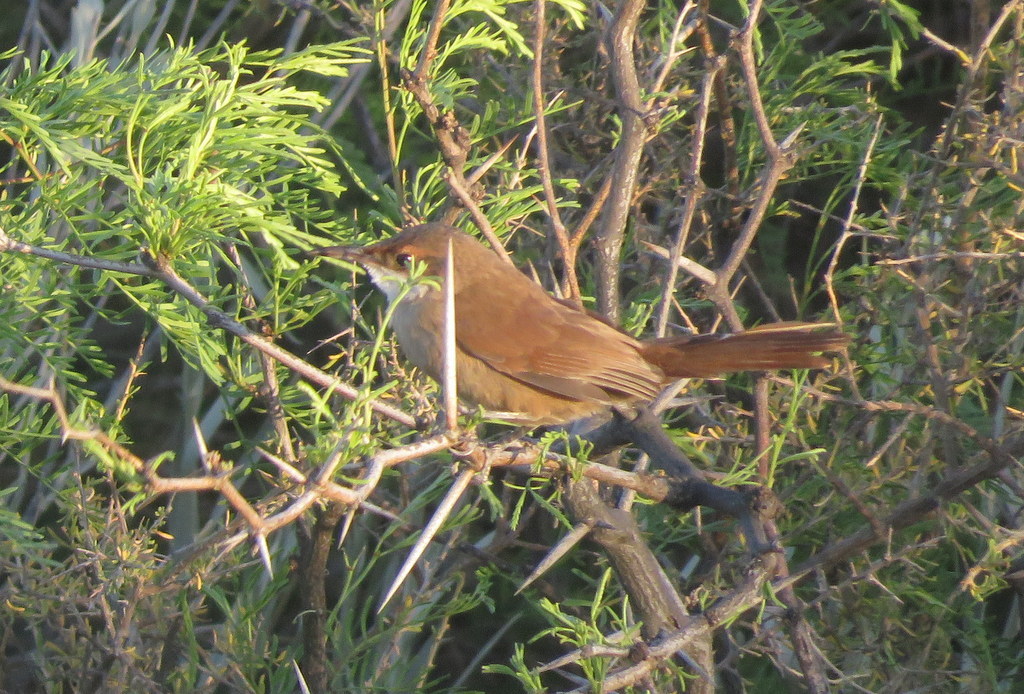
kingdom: Animalia
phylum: Chordata
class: Aves
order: Passeriformes
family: Furnariidae
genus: Upucerthia
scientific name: Upucerthia certhioides
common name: Chaco earthcreeper
